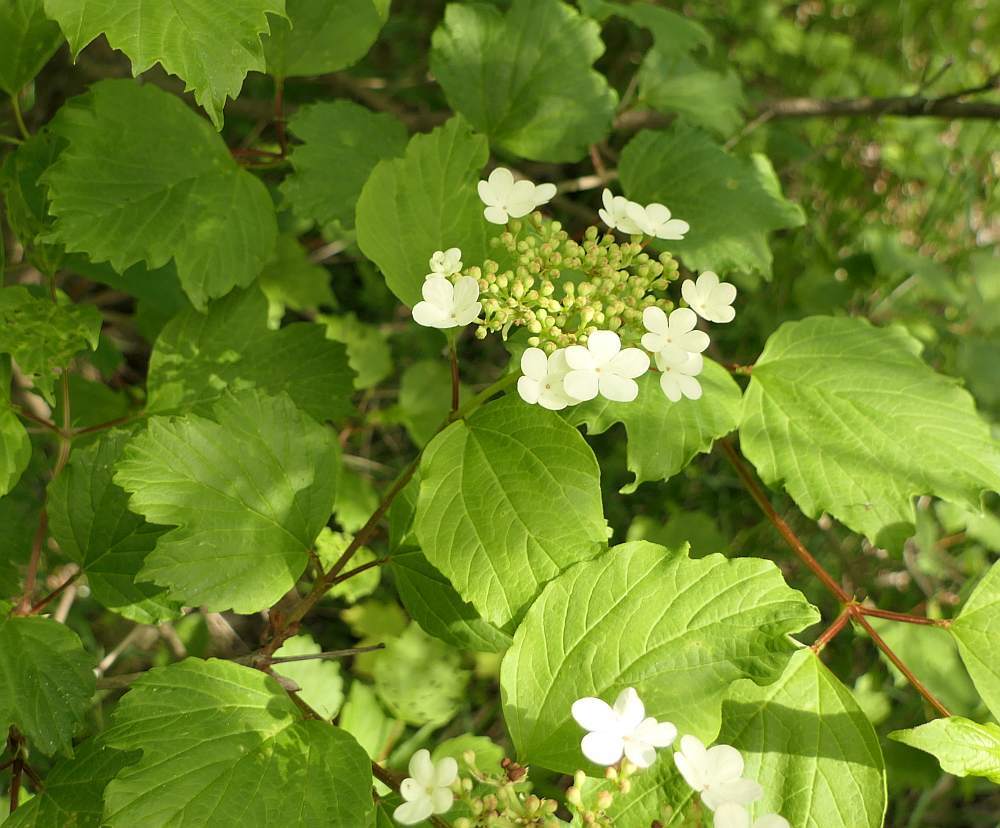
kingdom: Plantae
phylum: Tracheophyta
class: Magnoliopsida
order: Dipsacales
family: Viburnaceae
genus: Viburnum
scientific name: Viburnum opulus
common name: Guelder-rose
